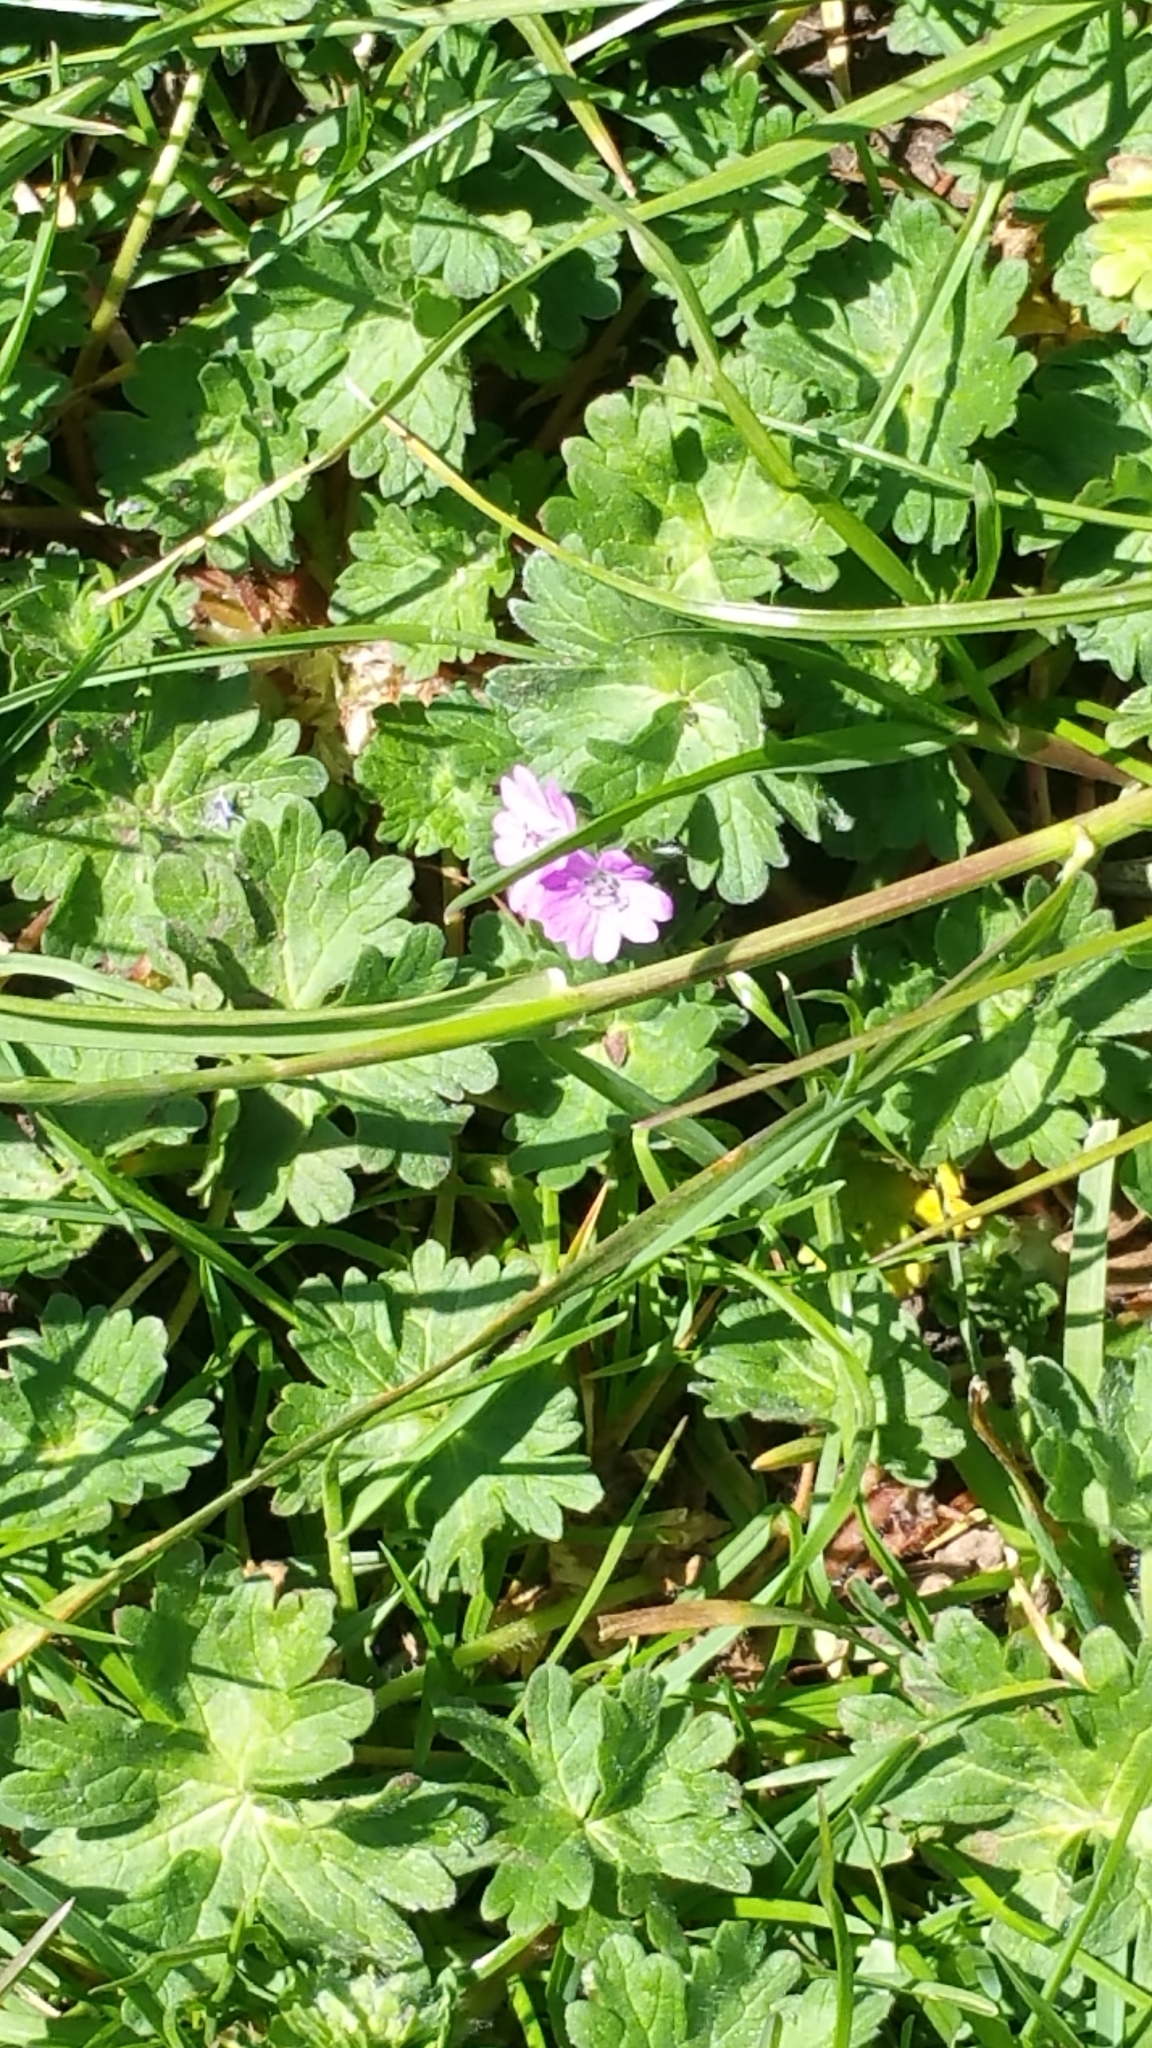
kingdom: Plantae
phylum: Tracheophyta
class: Magnoliopsida
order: Geraniales
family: Geraniaceae
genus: Geranium
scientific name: Geranium molle
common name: Dove's-foot crane's-bill
